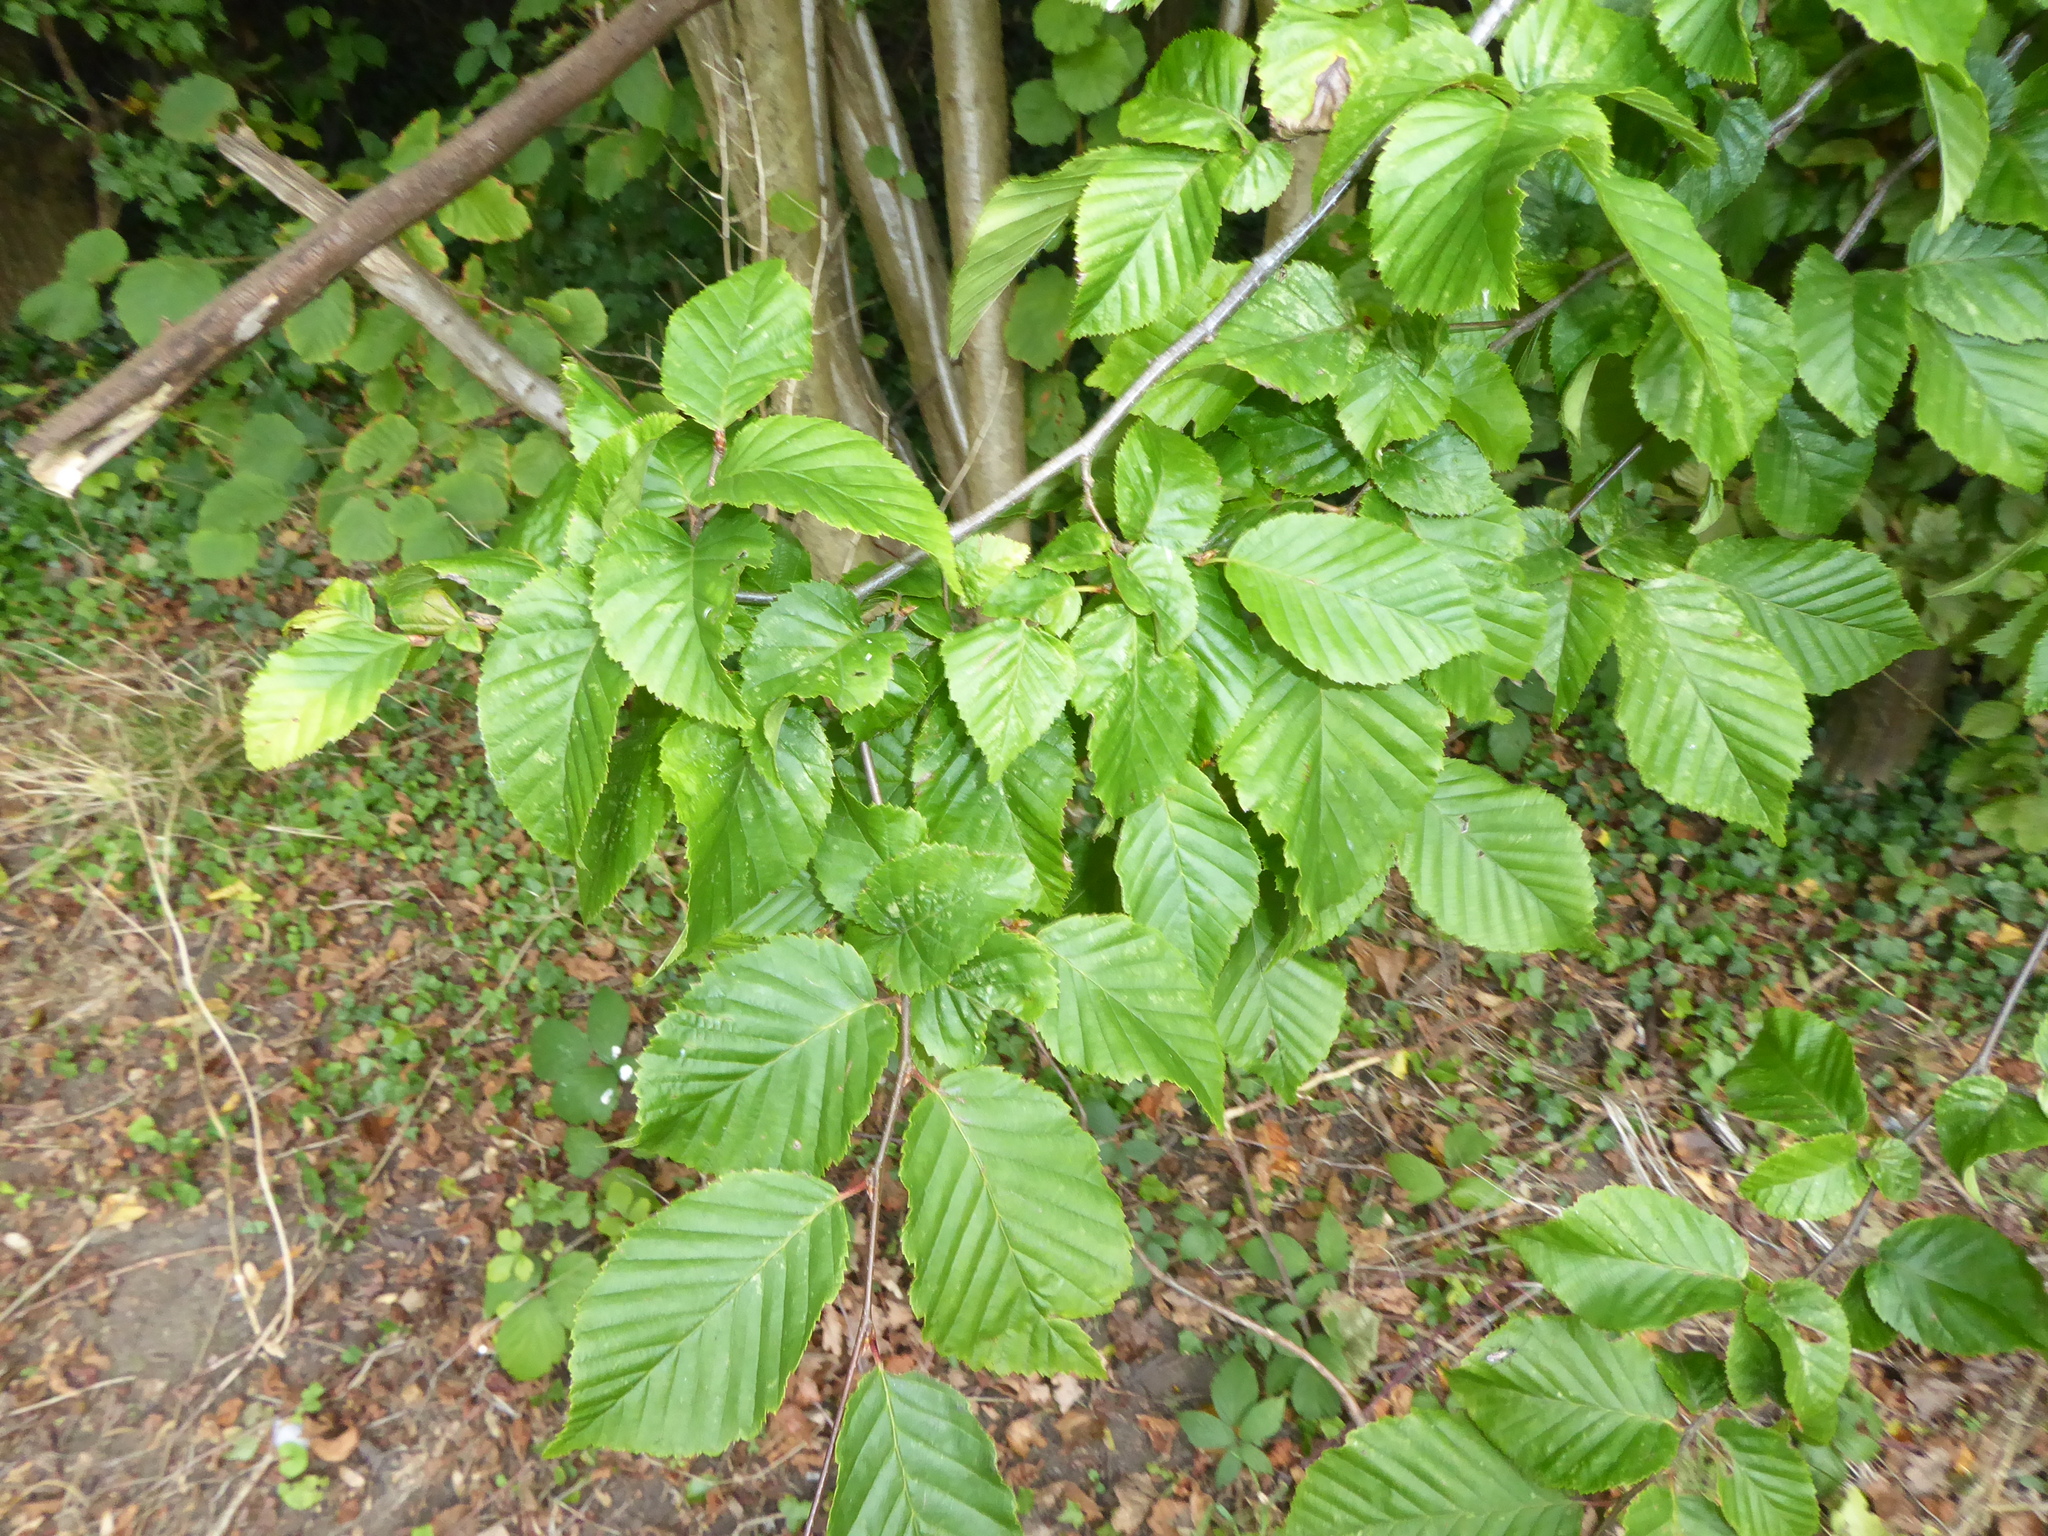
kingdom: Plantae
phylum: Tracheophyta
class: Magnoliopsida
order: Fagales
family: Betulaceae
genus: Carpinus
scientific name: Carpinus betulus
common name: Hornbeam
